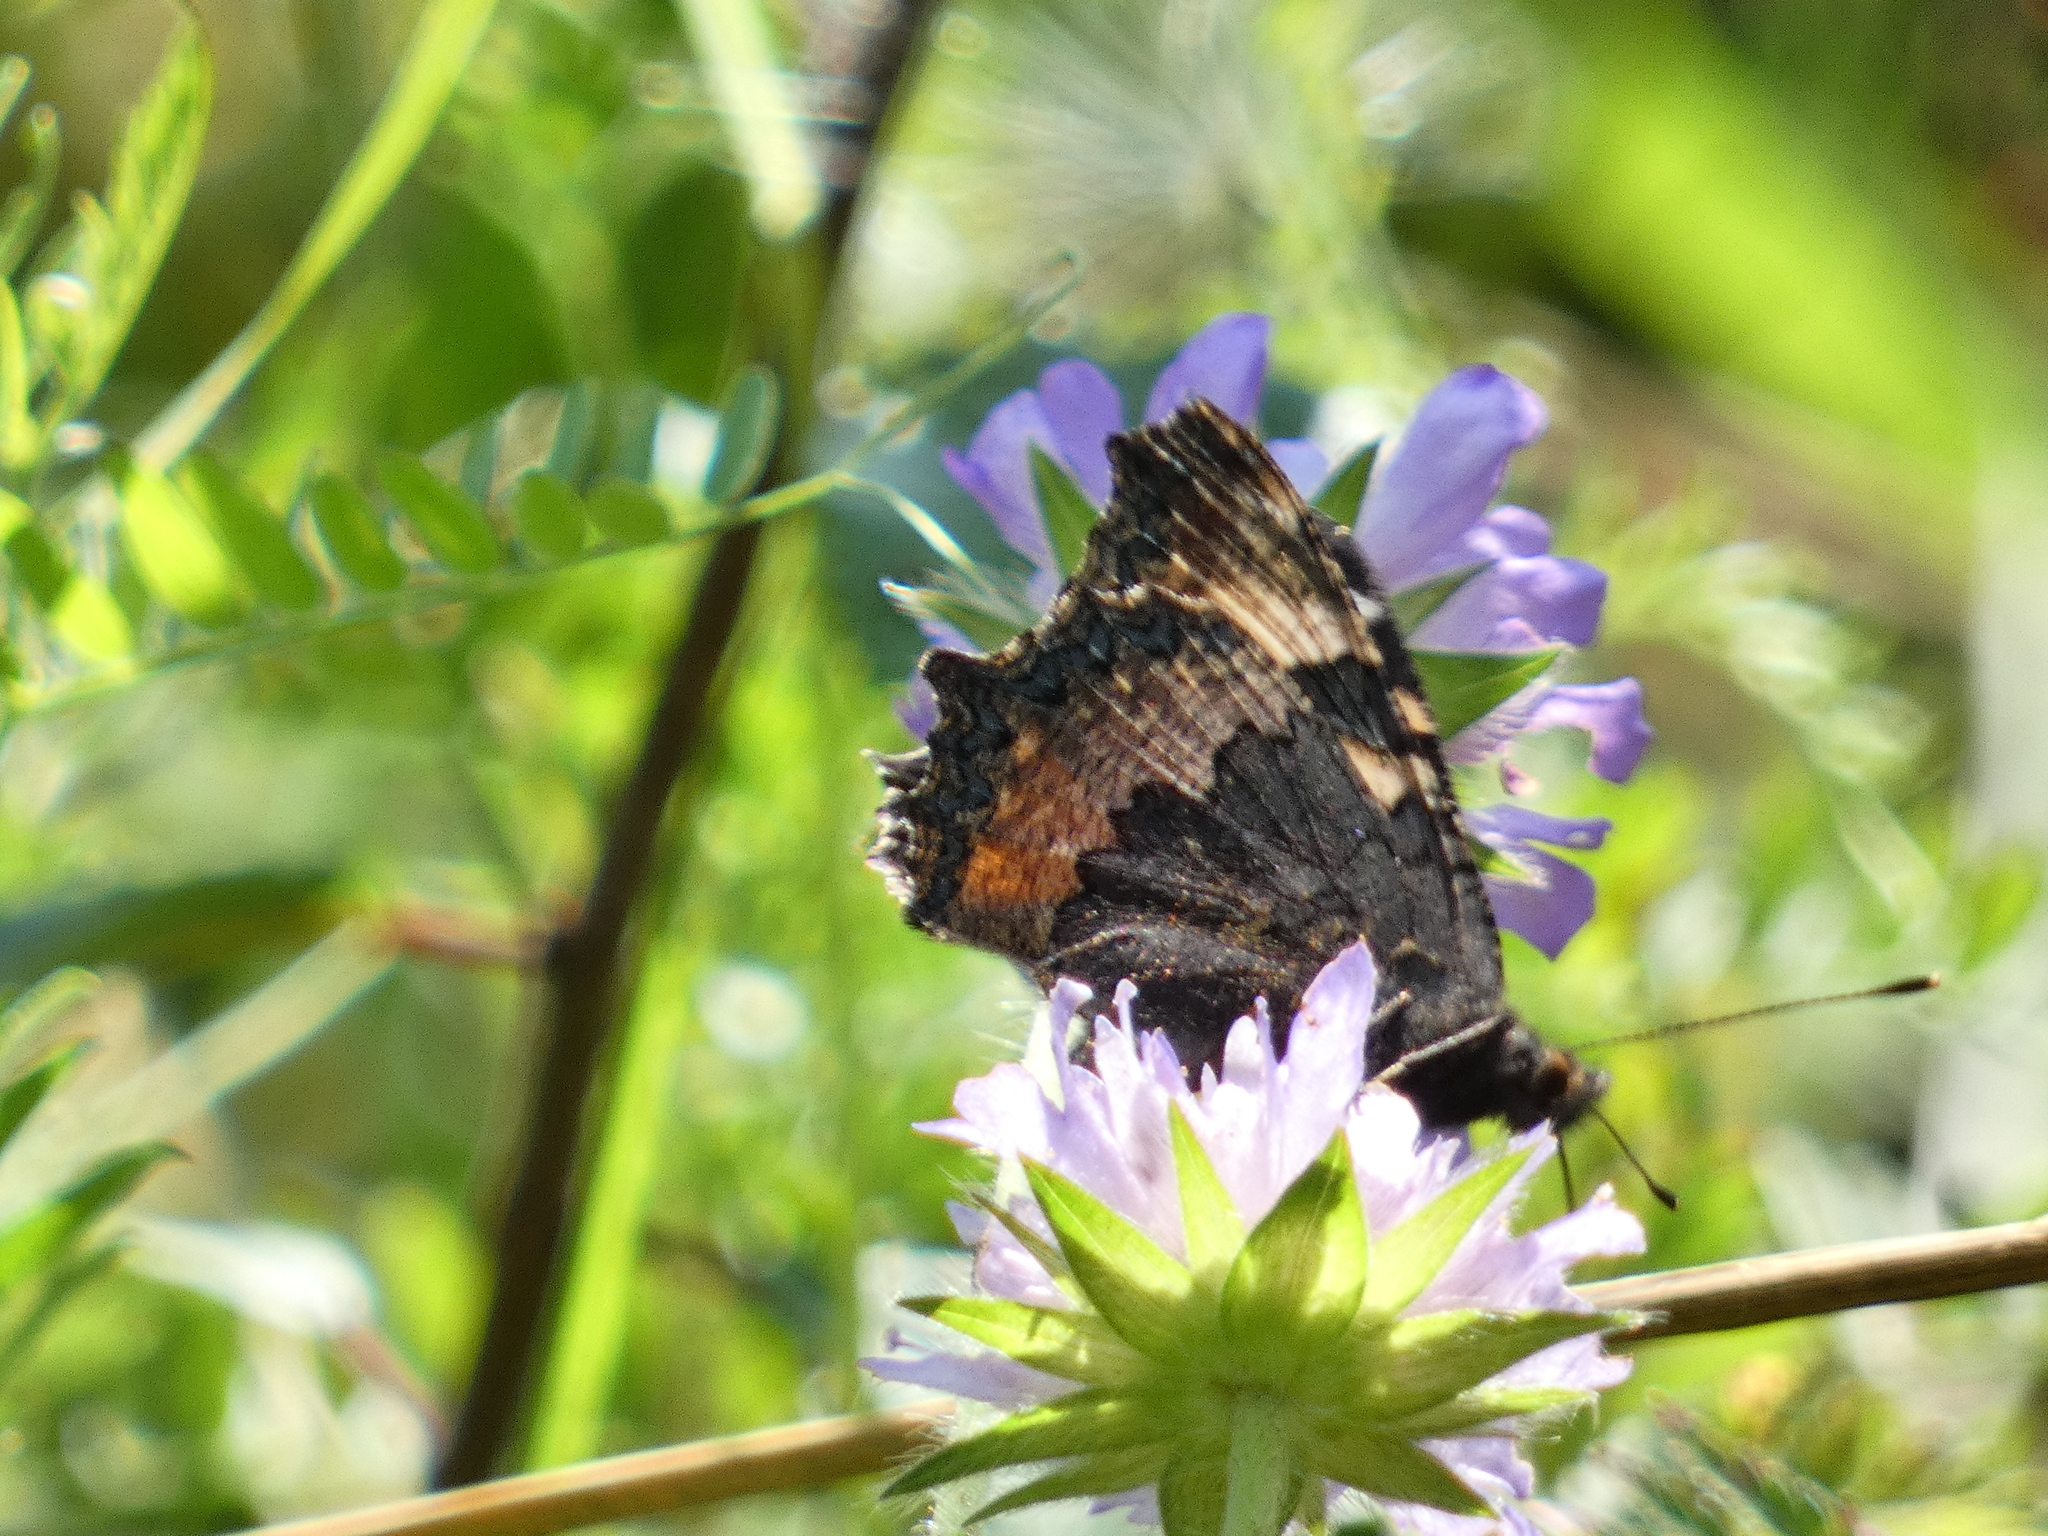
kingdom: Animalia
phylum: Arthropoda
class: Insecta
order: Lepidoptera
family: Nymphalidae
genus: Aglais
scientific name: Aglais urticae
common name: Small tortoiseshell
